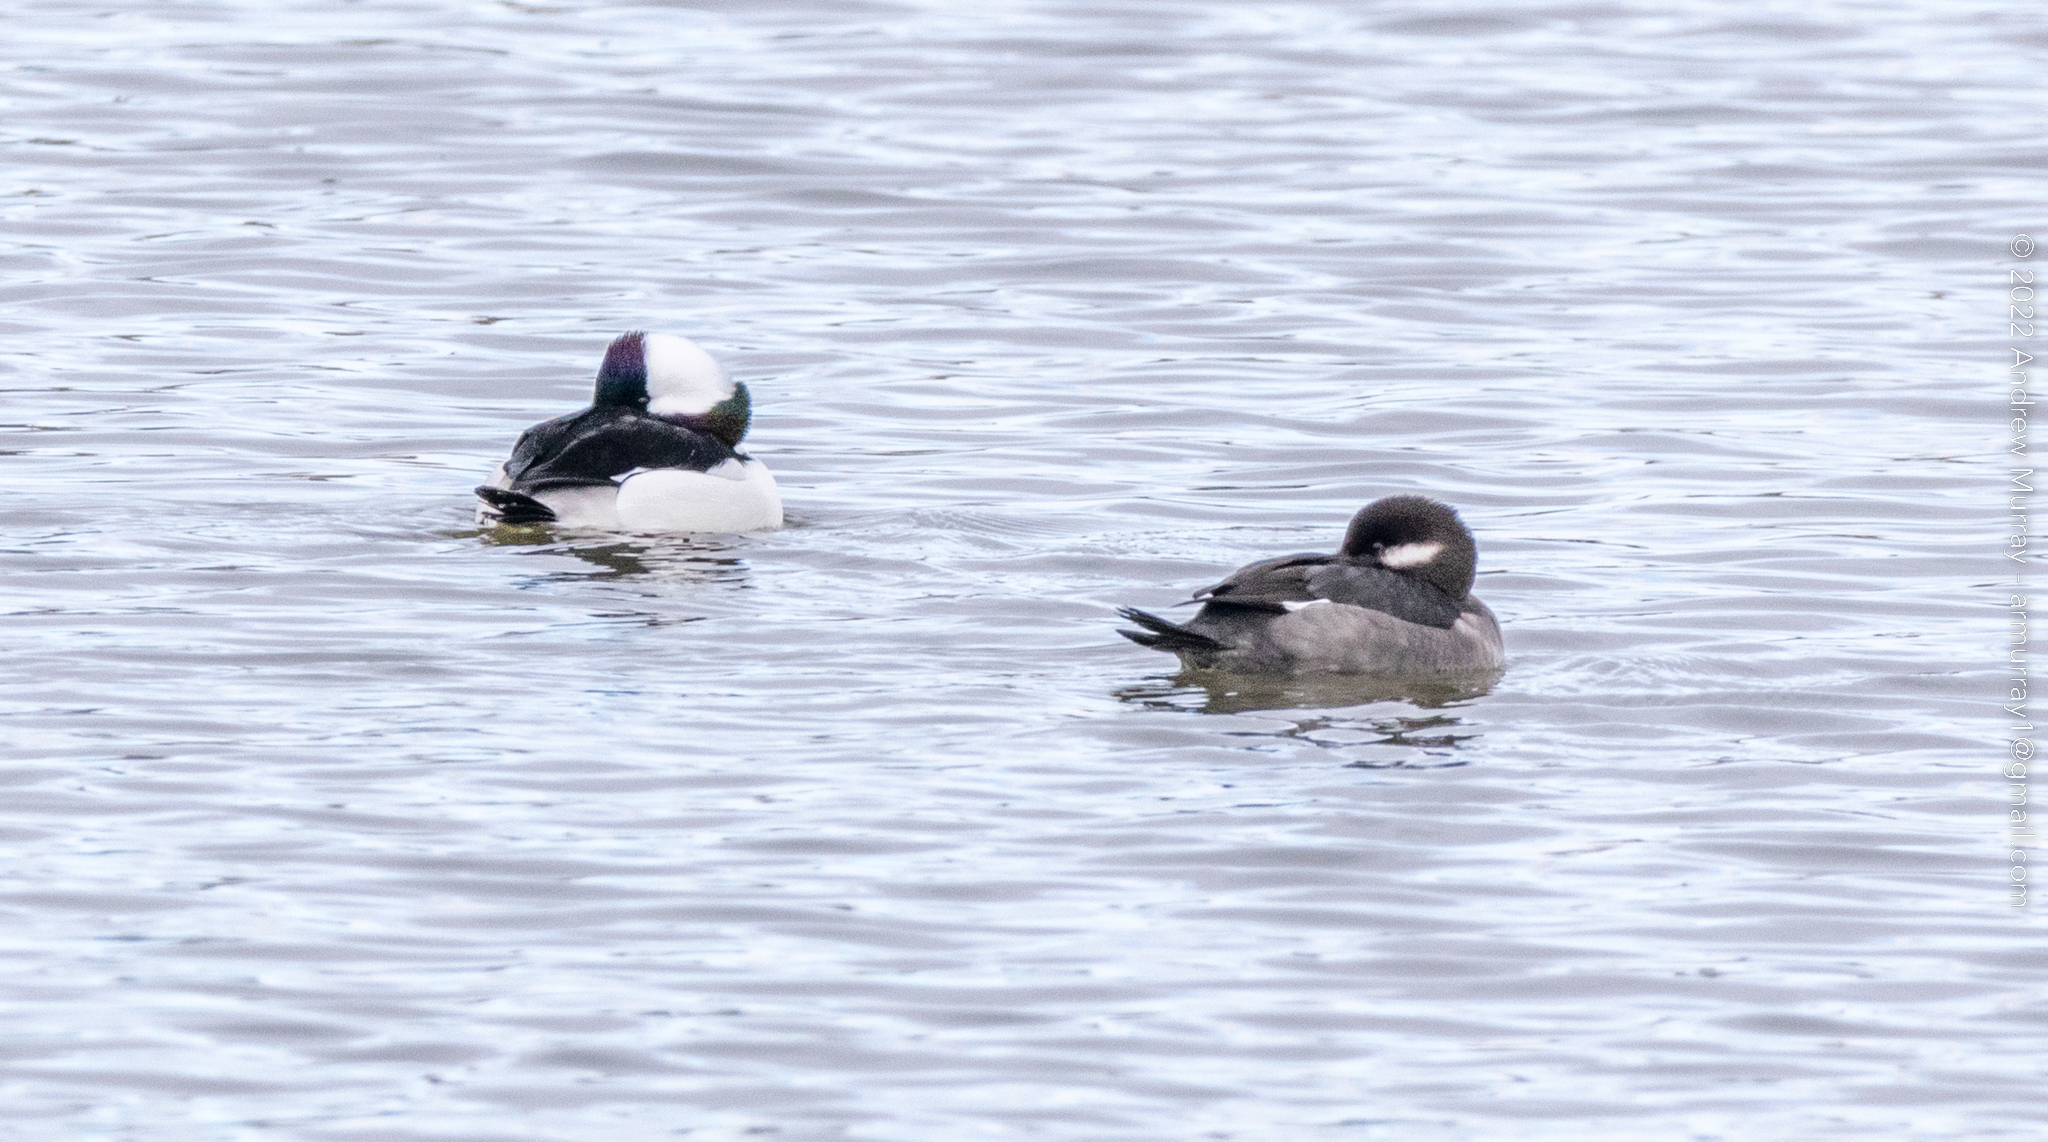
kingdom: Animalia
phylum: Chordata
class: Aves
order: Anseriformes
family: Anatidae
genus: Bucephala
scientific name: Bucephala albeola
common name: Bufflehead
